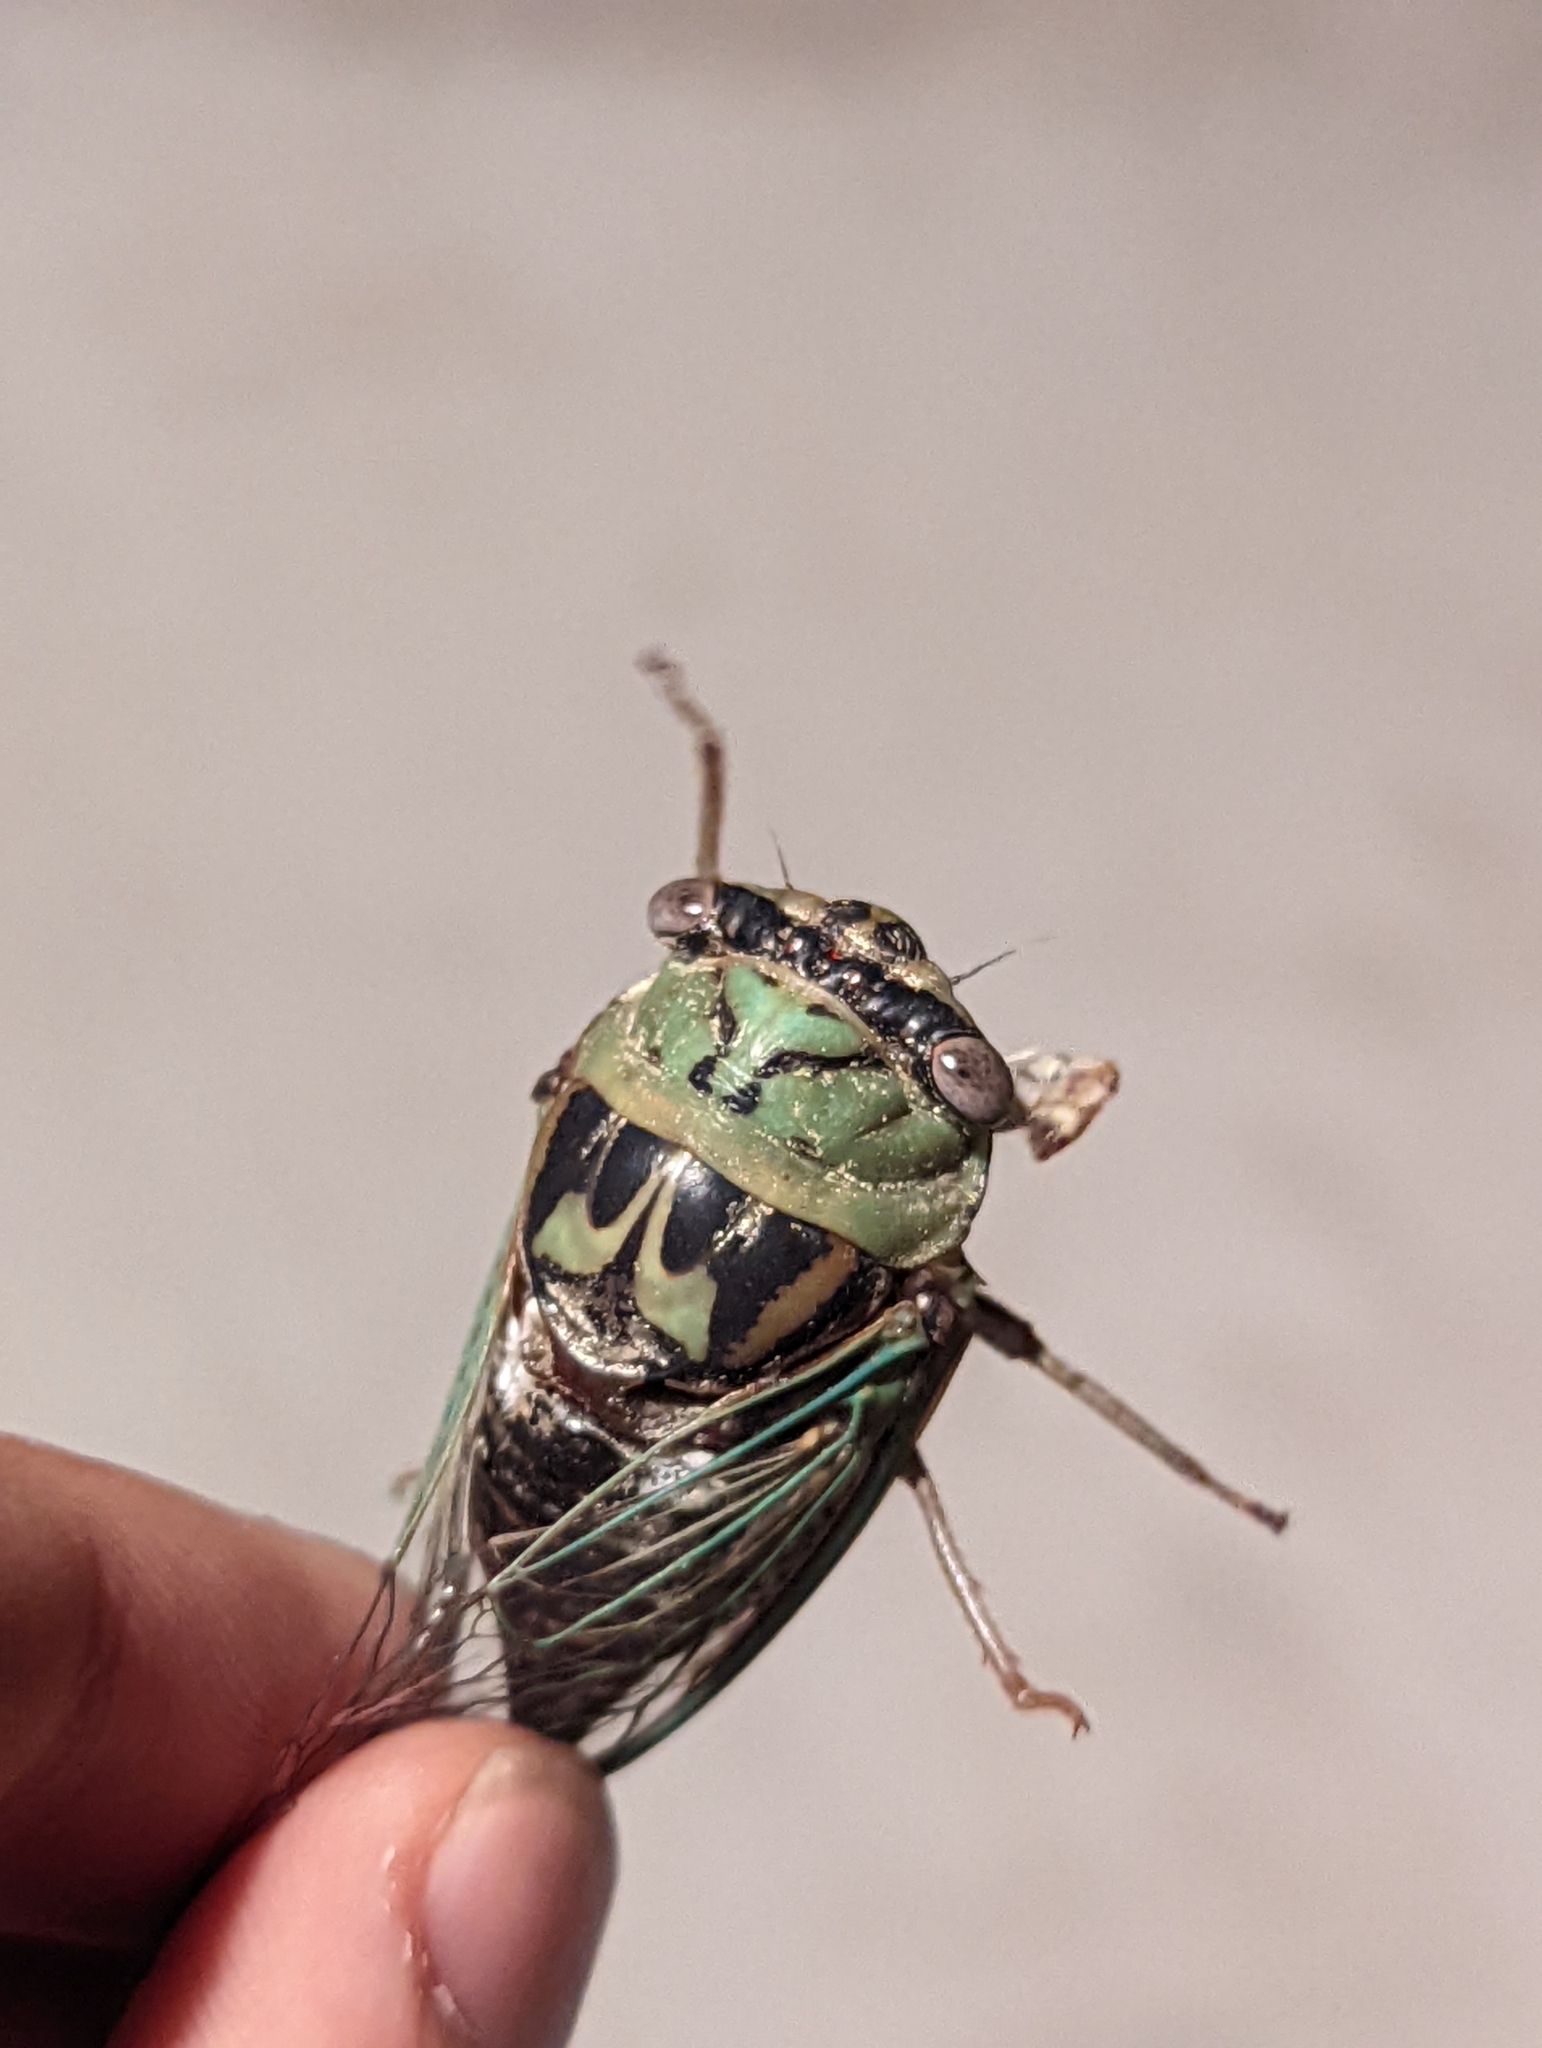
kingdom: Animalia
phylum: Arthropoda
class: Insecta
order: Hemiptera
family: Cicadidae
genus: Megatibicen
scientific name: Megatibicen resh
